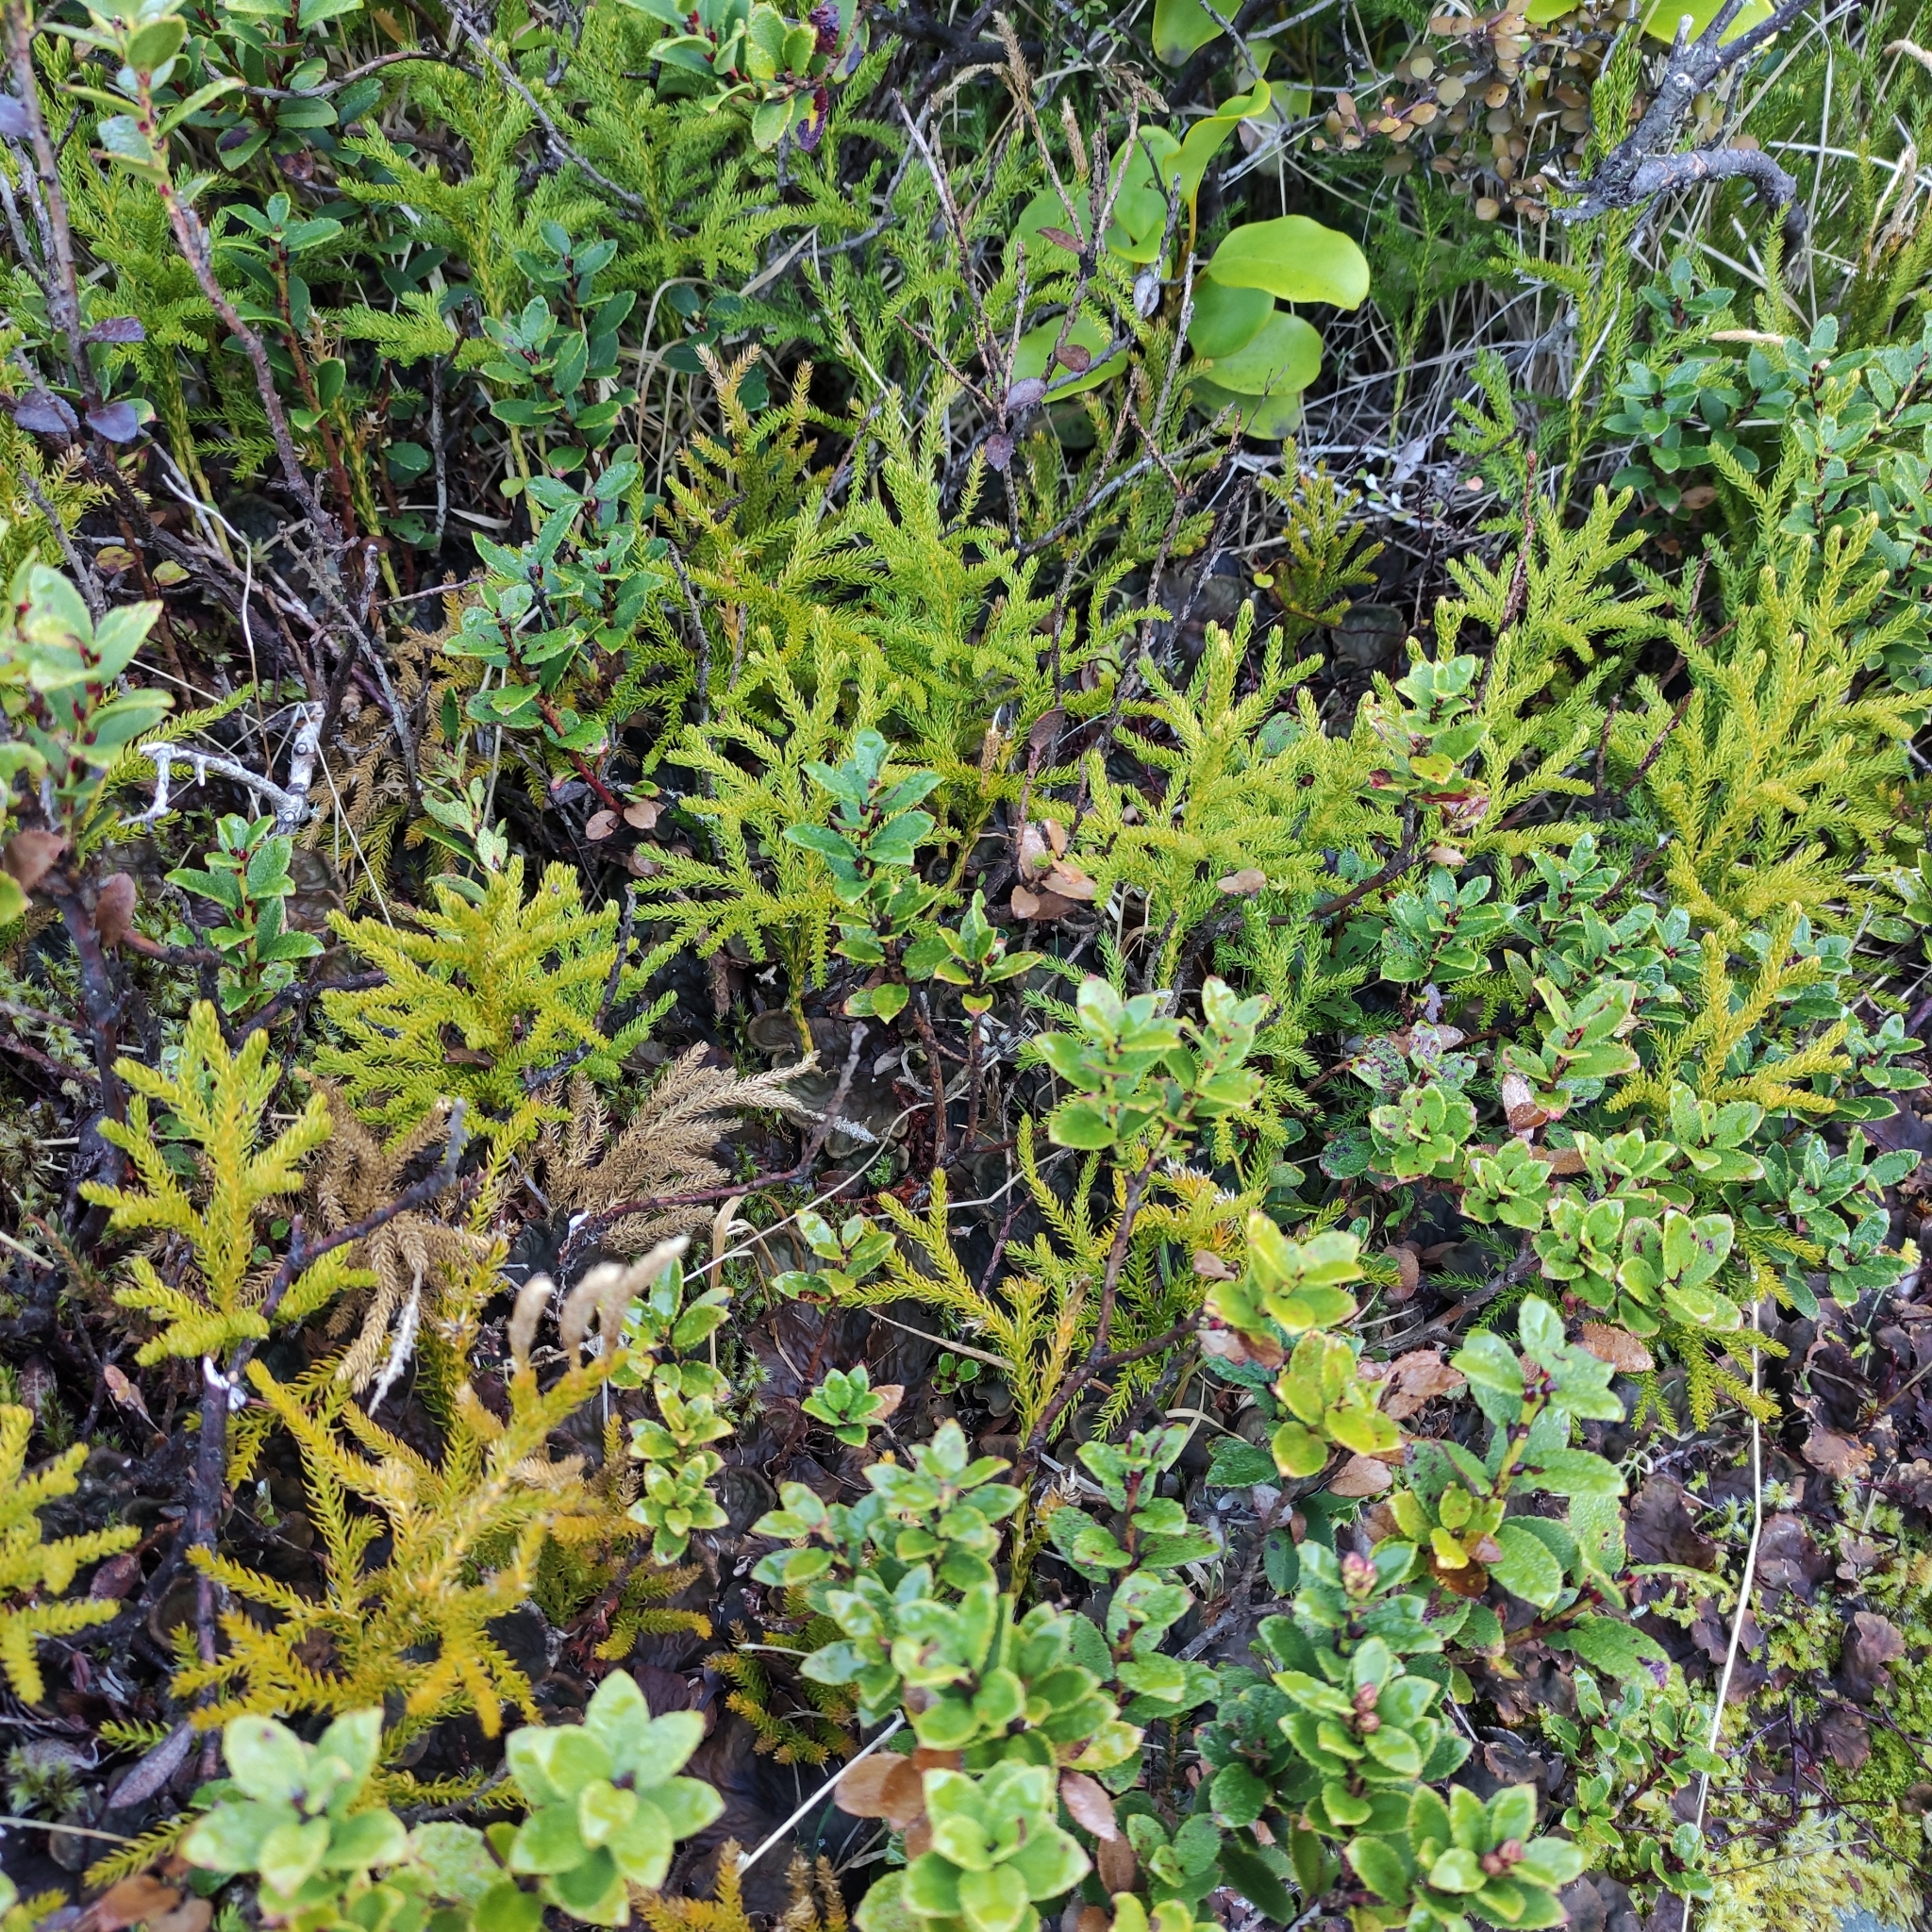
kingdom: Plantae
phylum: Tracheophyta
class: Lycopodiopsida
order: Lycopodiales
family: Lycopodiaceae
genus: Austrolycopodium
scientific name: Austrolycopodium fastigiatum
